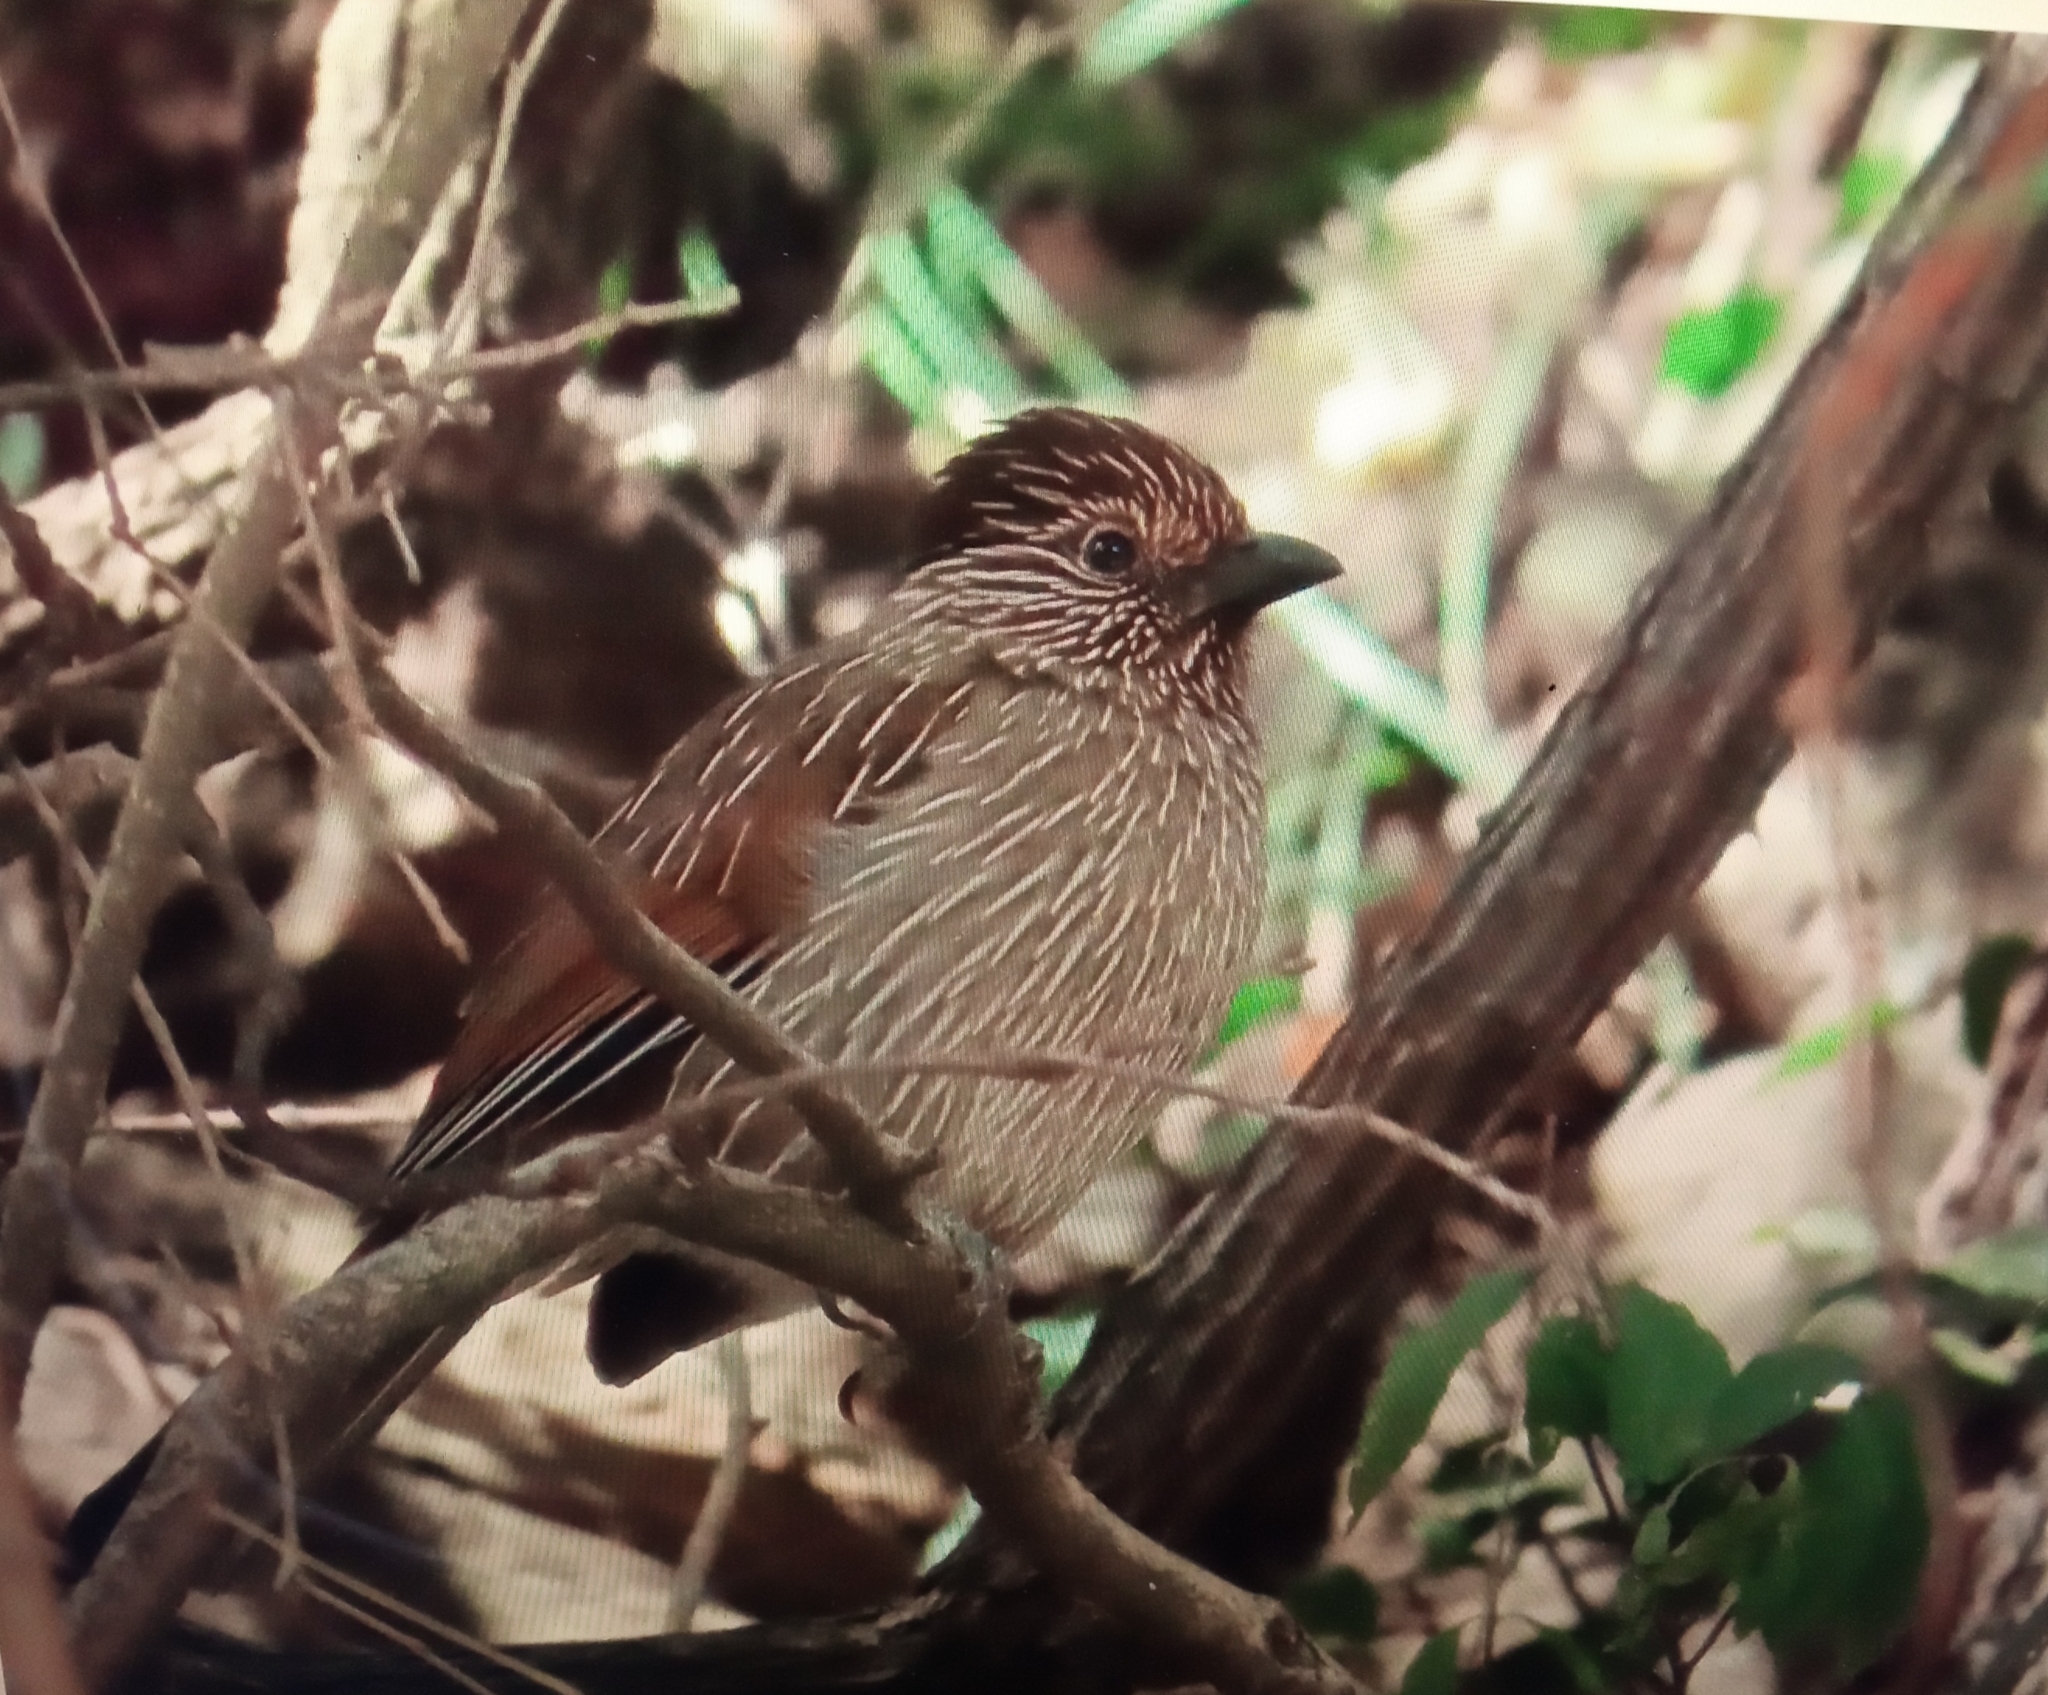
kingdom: Animalia
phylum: Chordata
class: Aves
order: Passeriformes
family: Leiothrichidae
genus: Garrulax
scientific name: Garrulax striatus
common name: Striated laughingthrush
